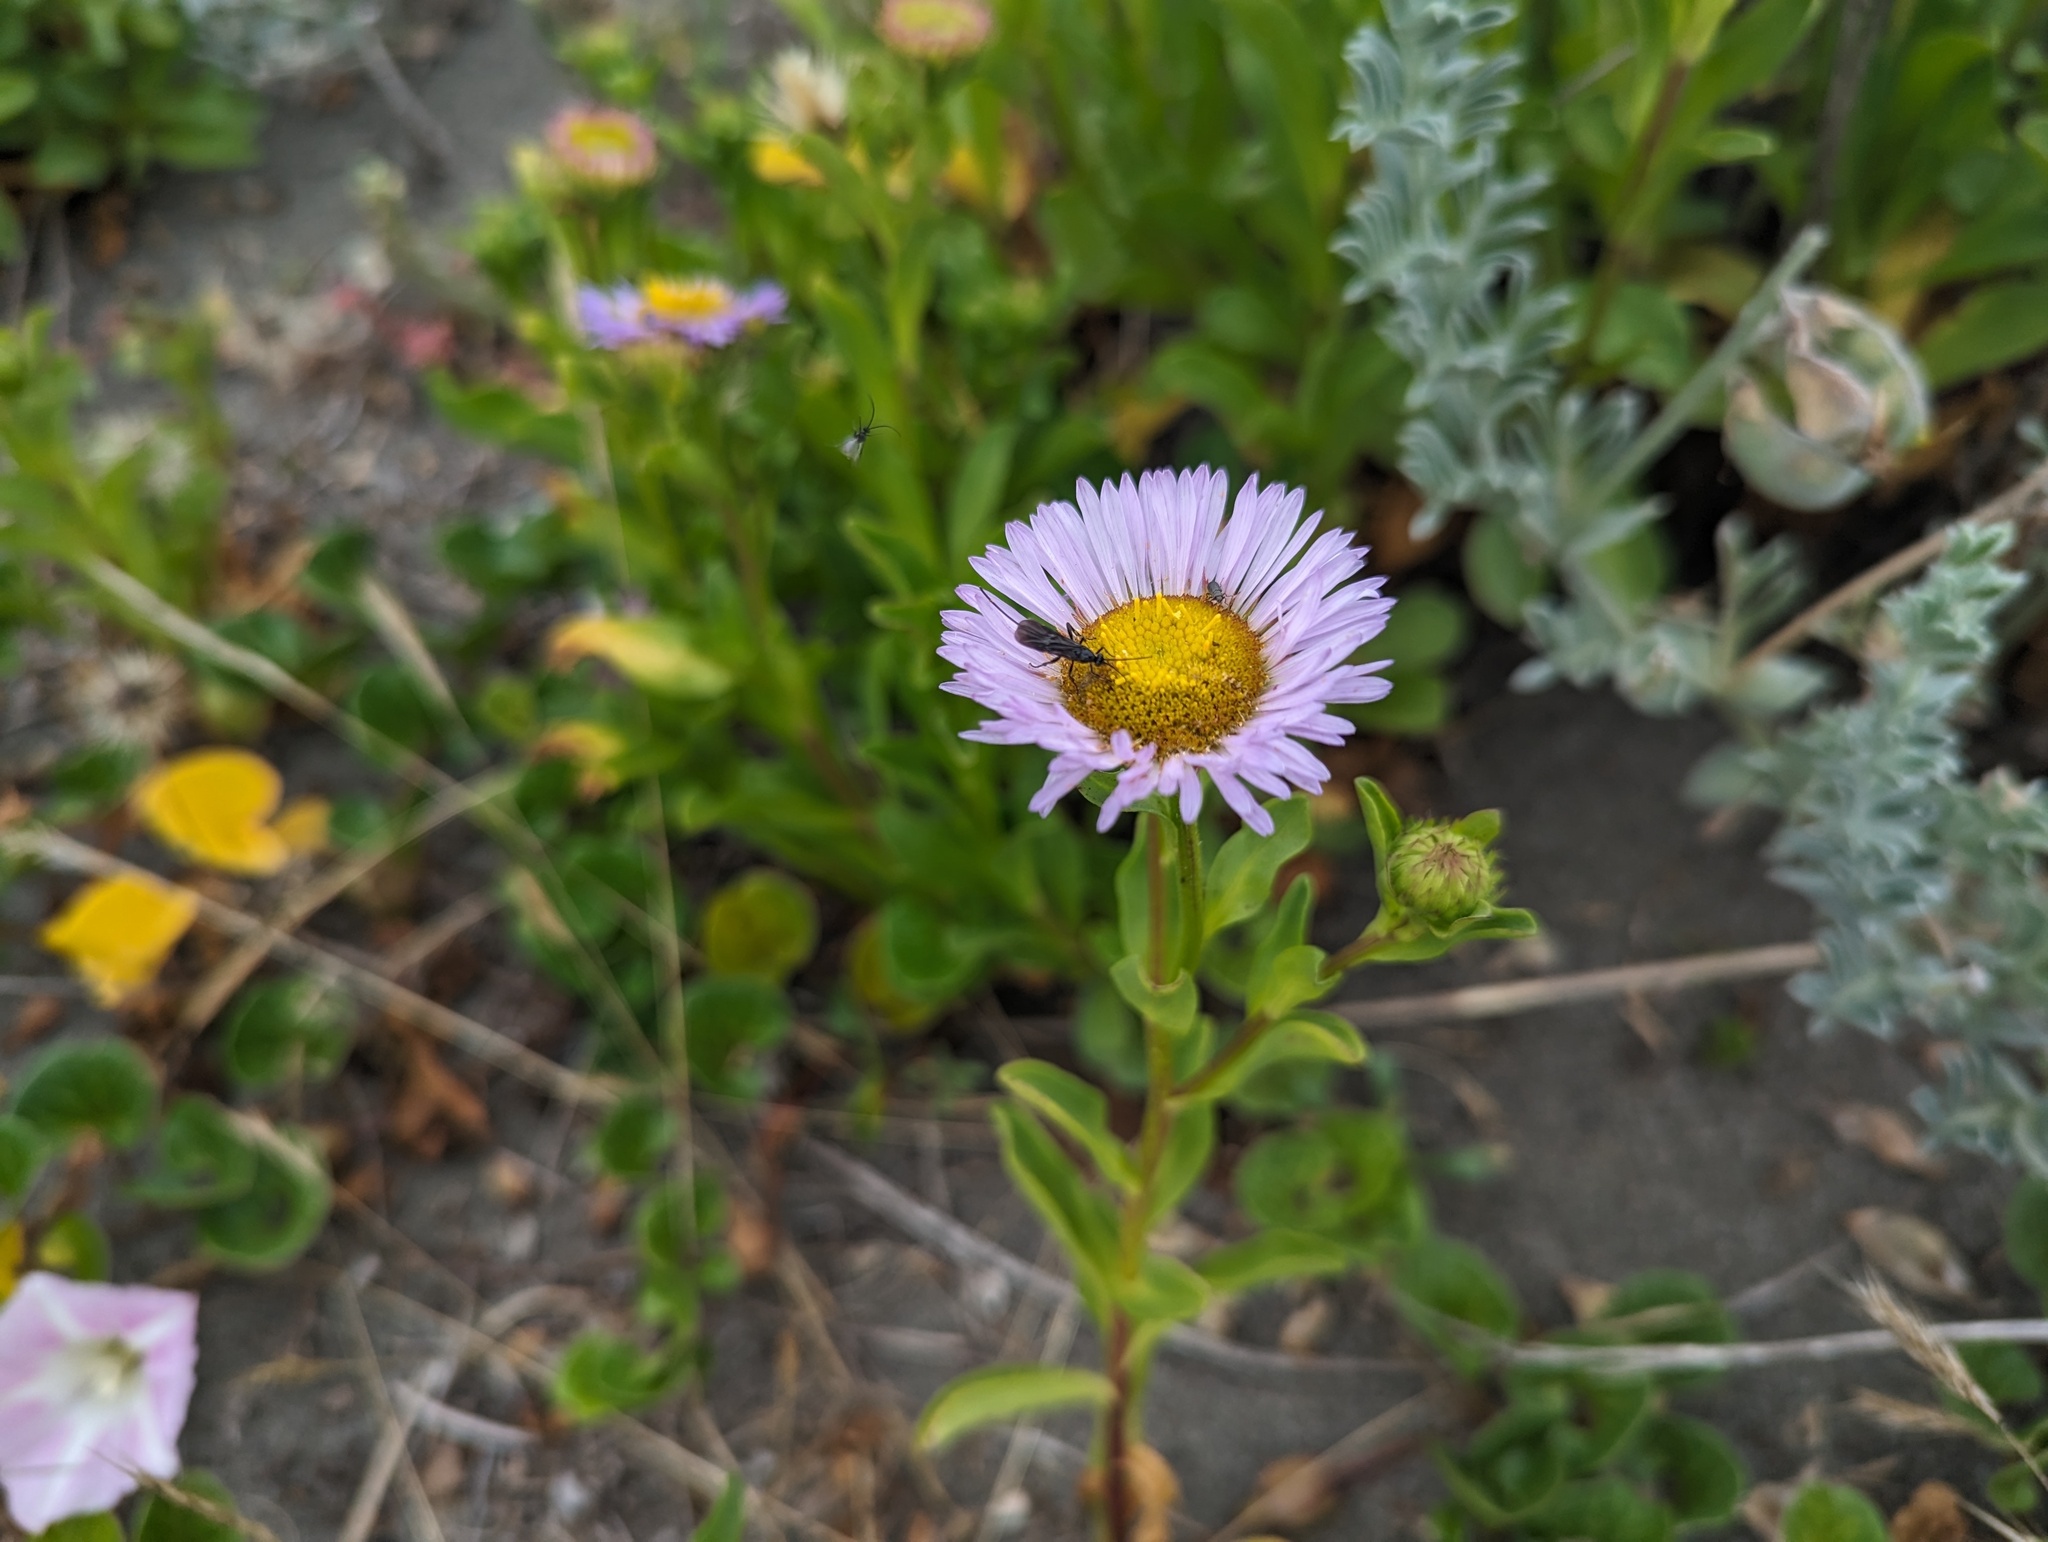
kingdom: Plantae
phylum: Tracheophyta
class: Magnoliopsida
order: Asterales
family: Asteraceae
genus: Erigeron
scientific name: Erigeron glaucus
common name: Seaside daisy
